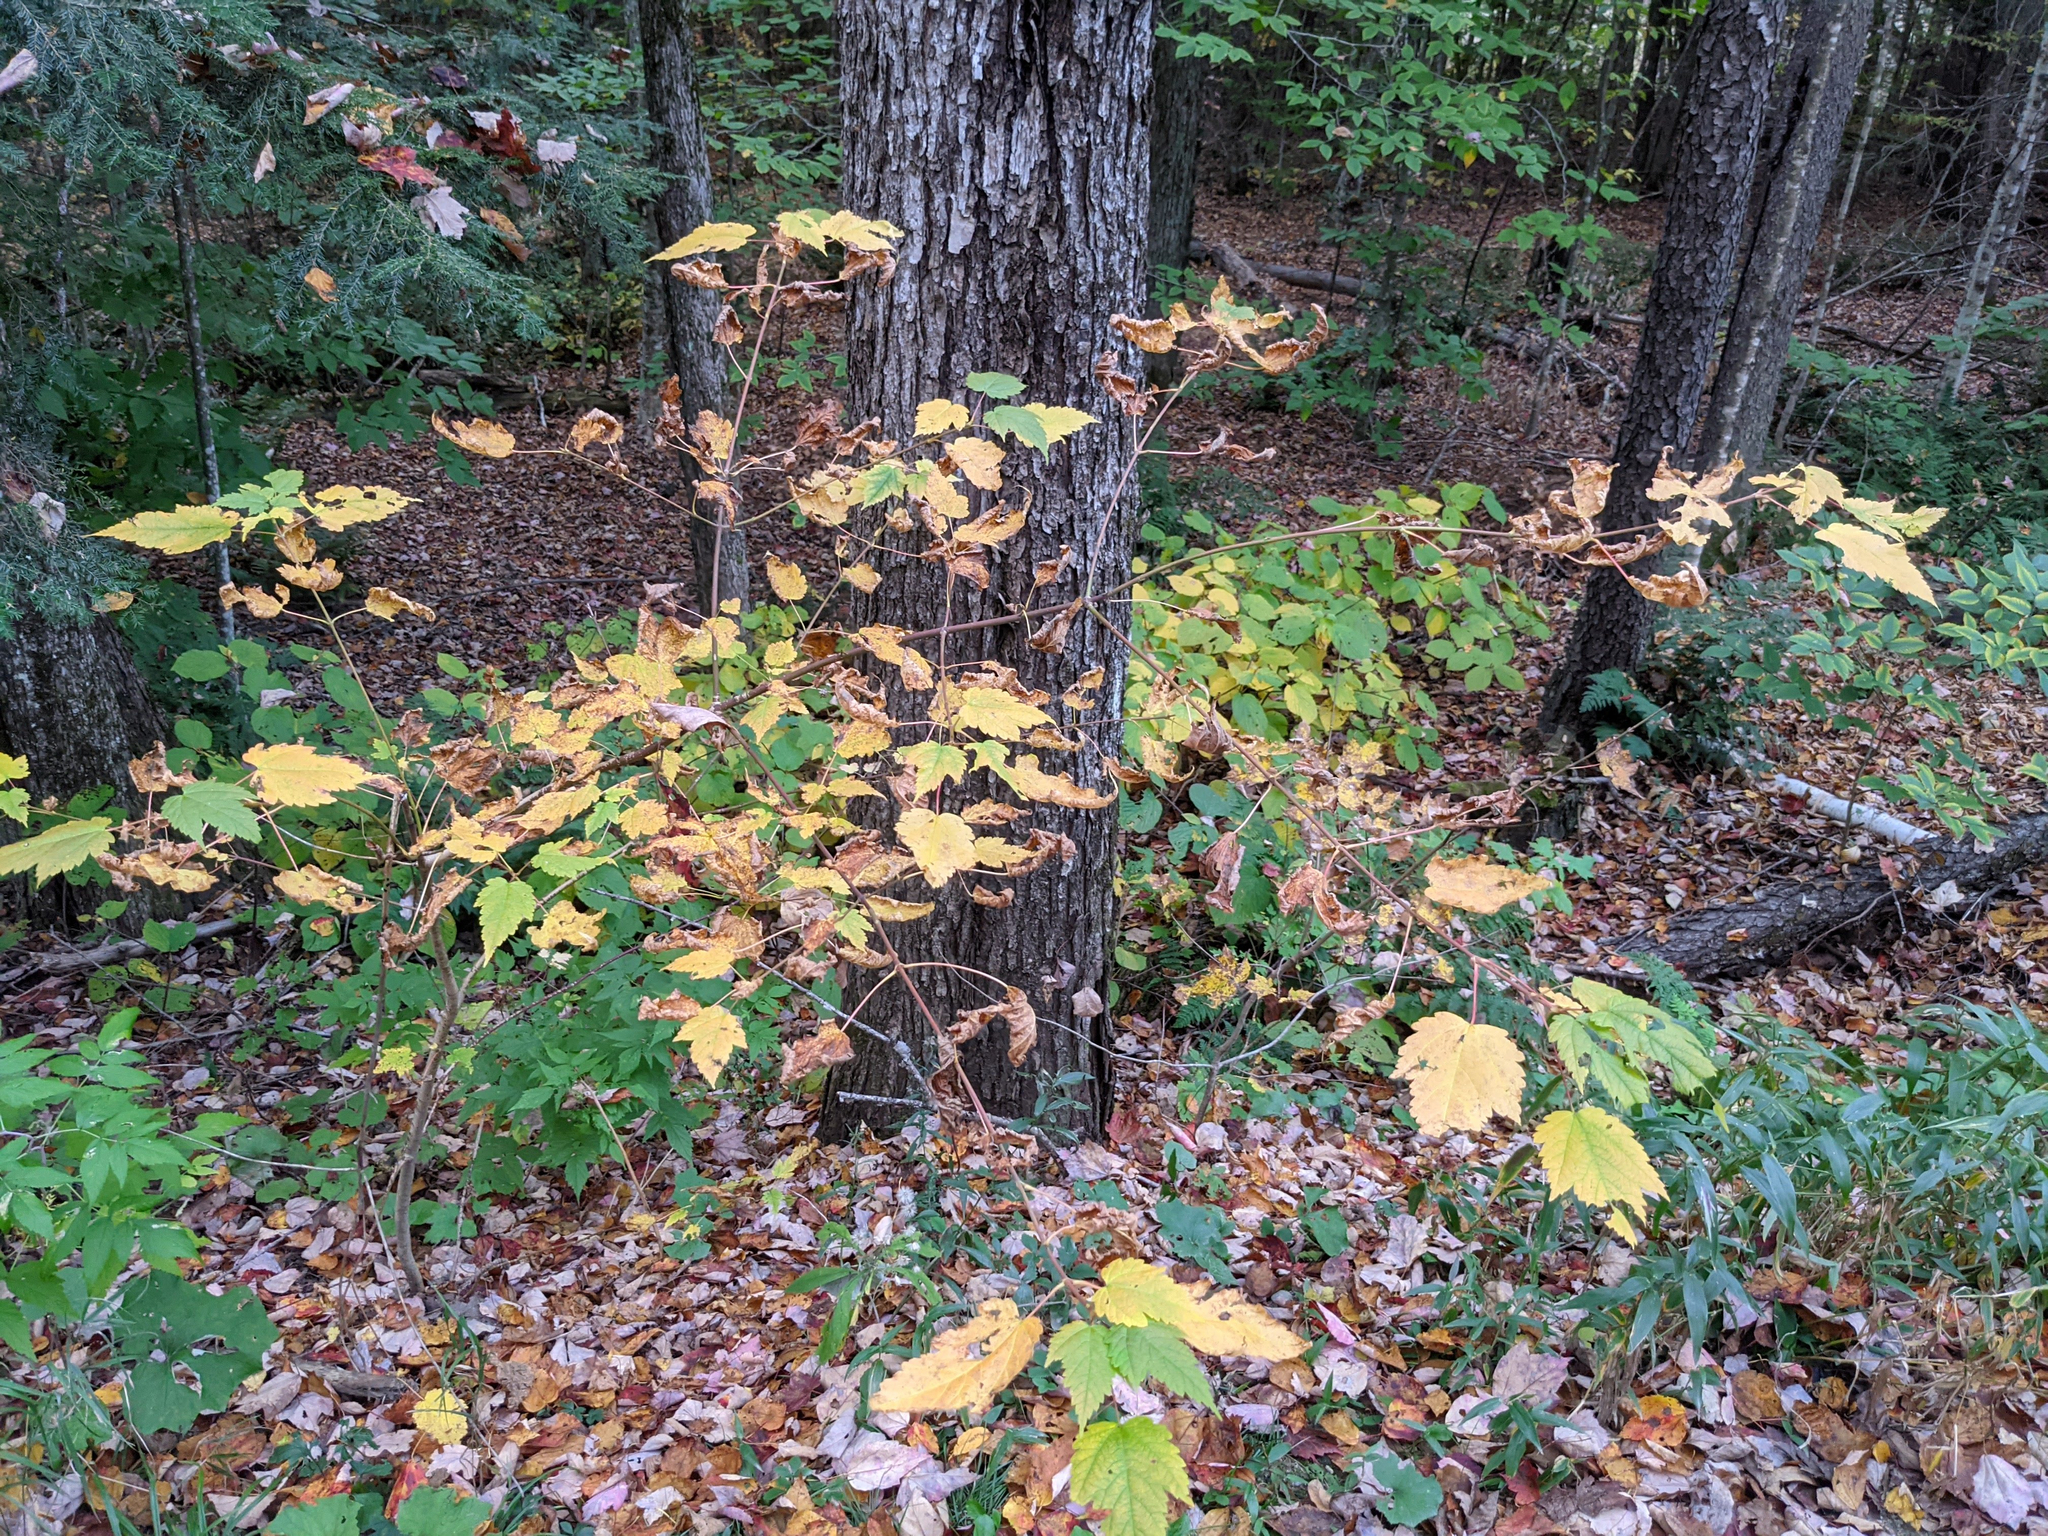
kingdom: Plantae
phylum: Tracheophyta
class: Magnoliopsida
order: Sapindales
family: Sapindaceae
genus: Acer
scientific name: Acer spicatum
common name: Mountain maple
